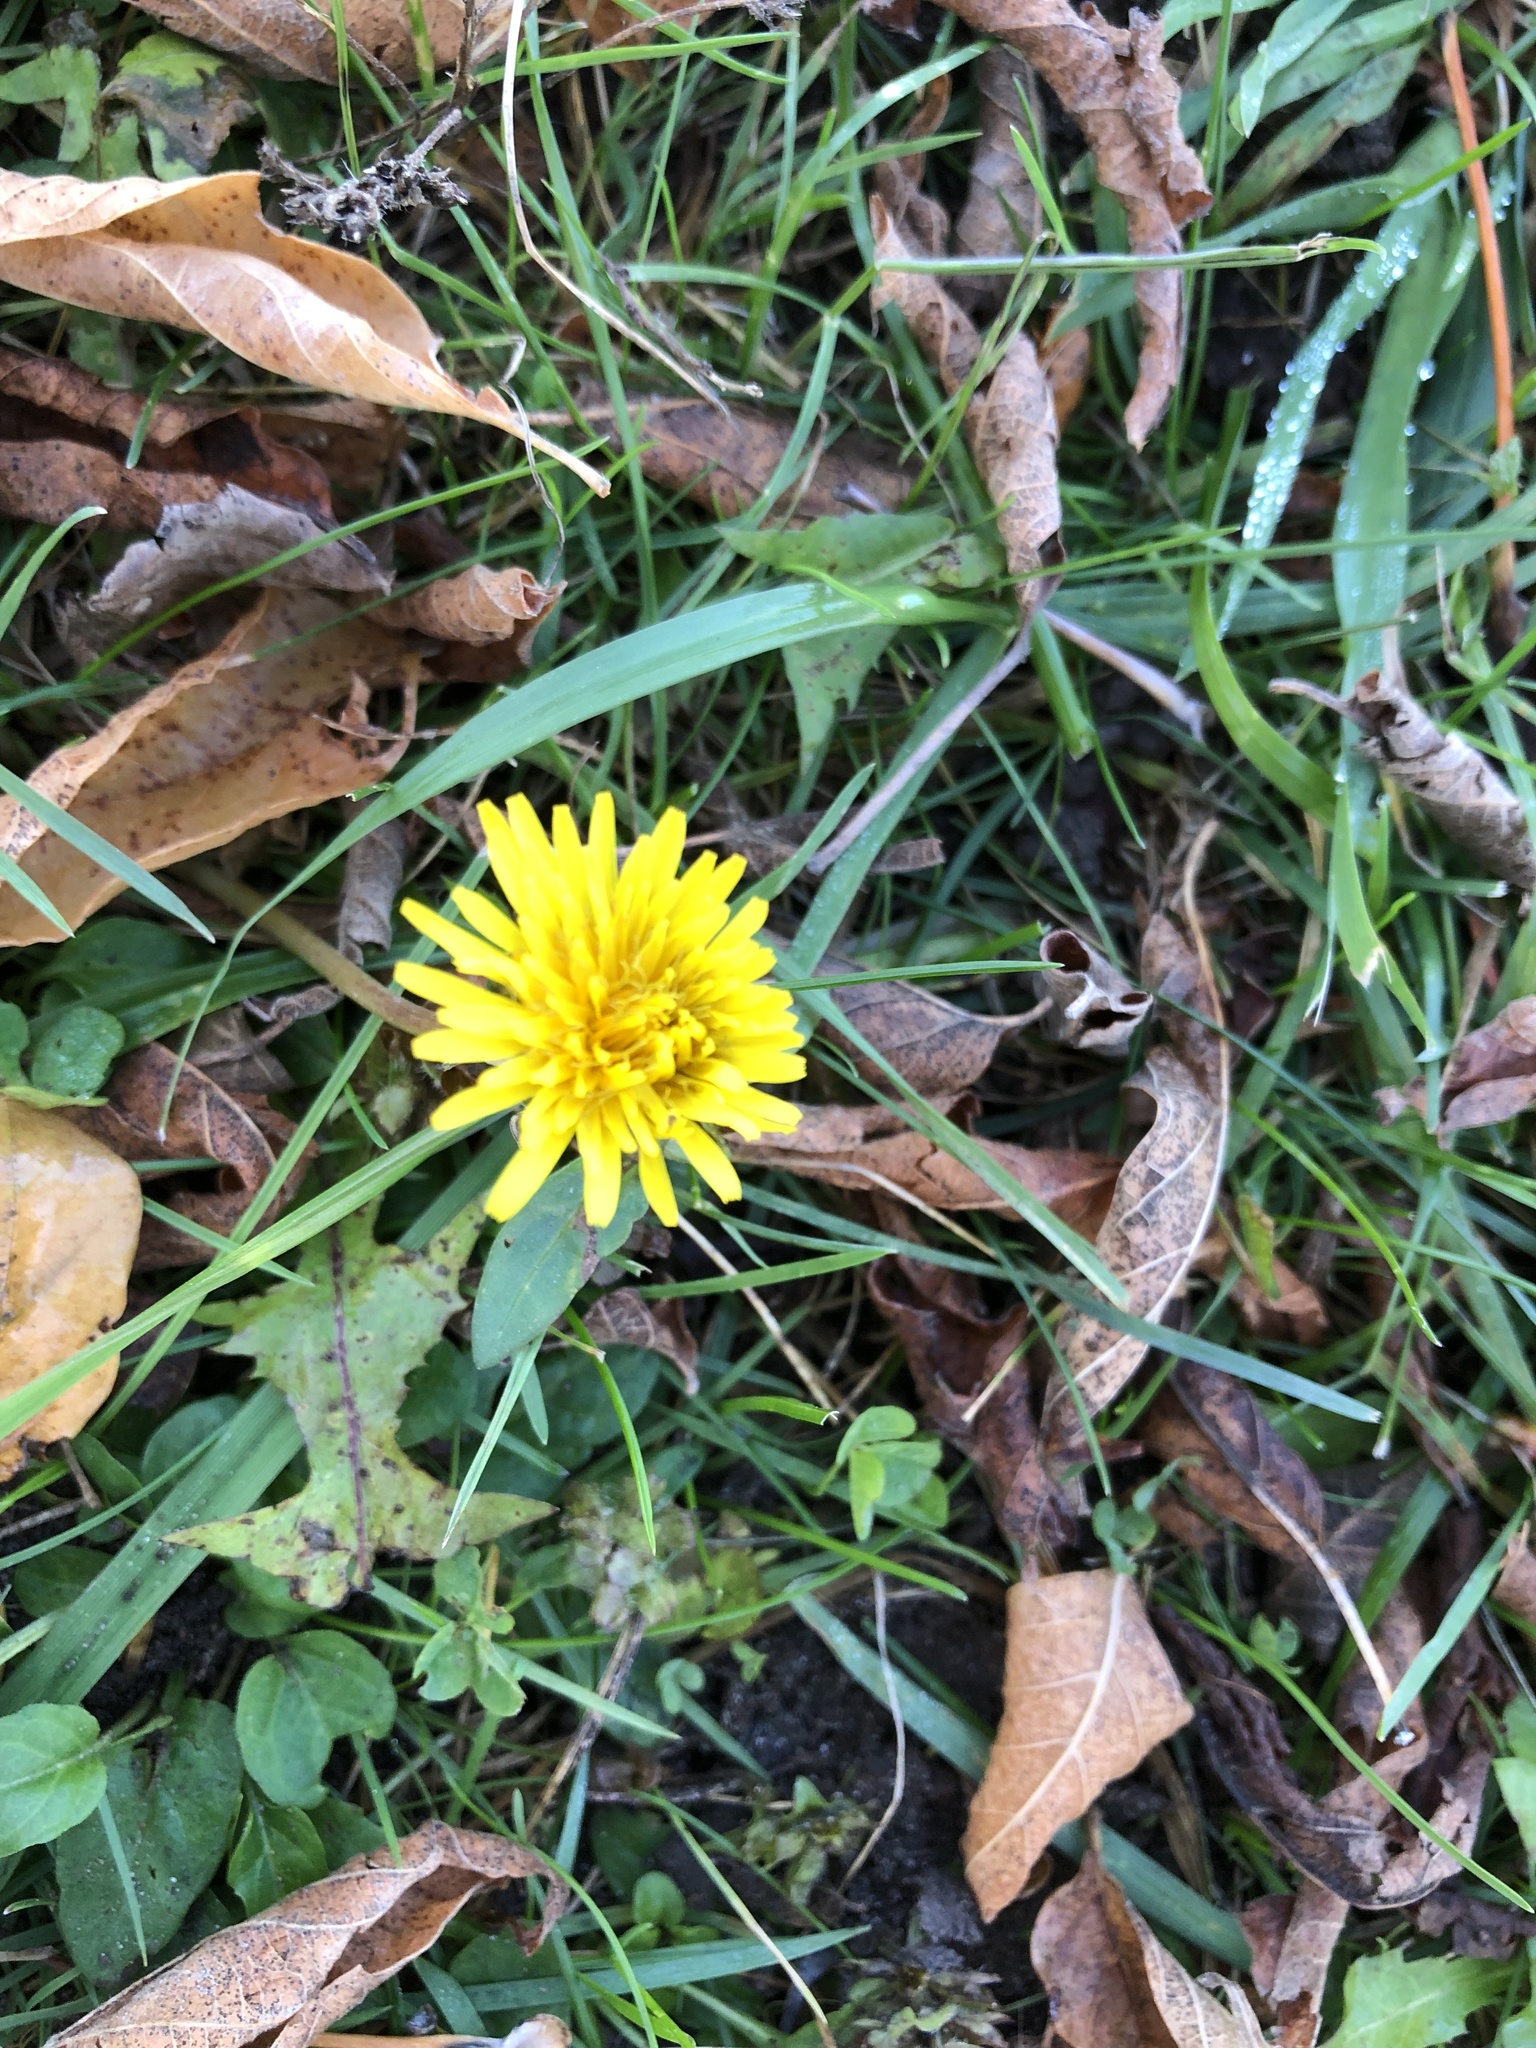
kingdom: Plantae
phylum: Tracheophyta
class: Magnoliopsida
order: Asterales
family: Asteraceae
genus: Taraxacum
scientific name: Taraxacum officinale
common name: Common dandelion
